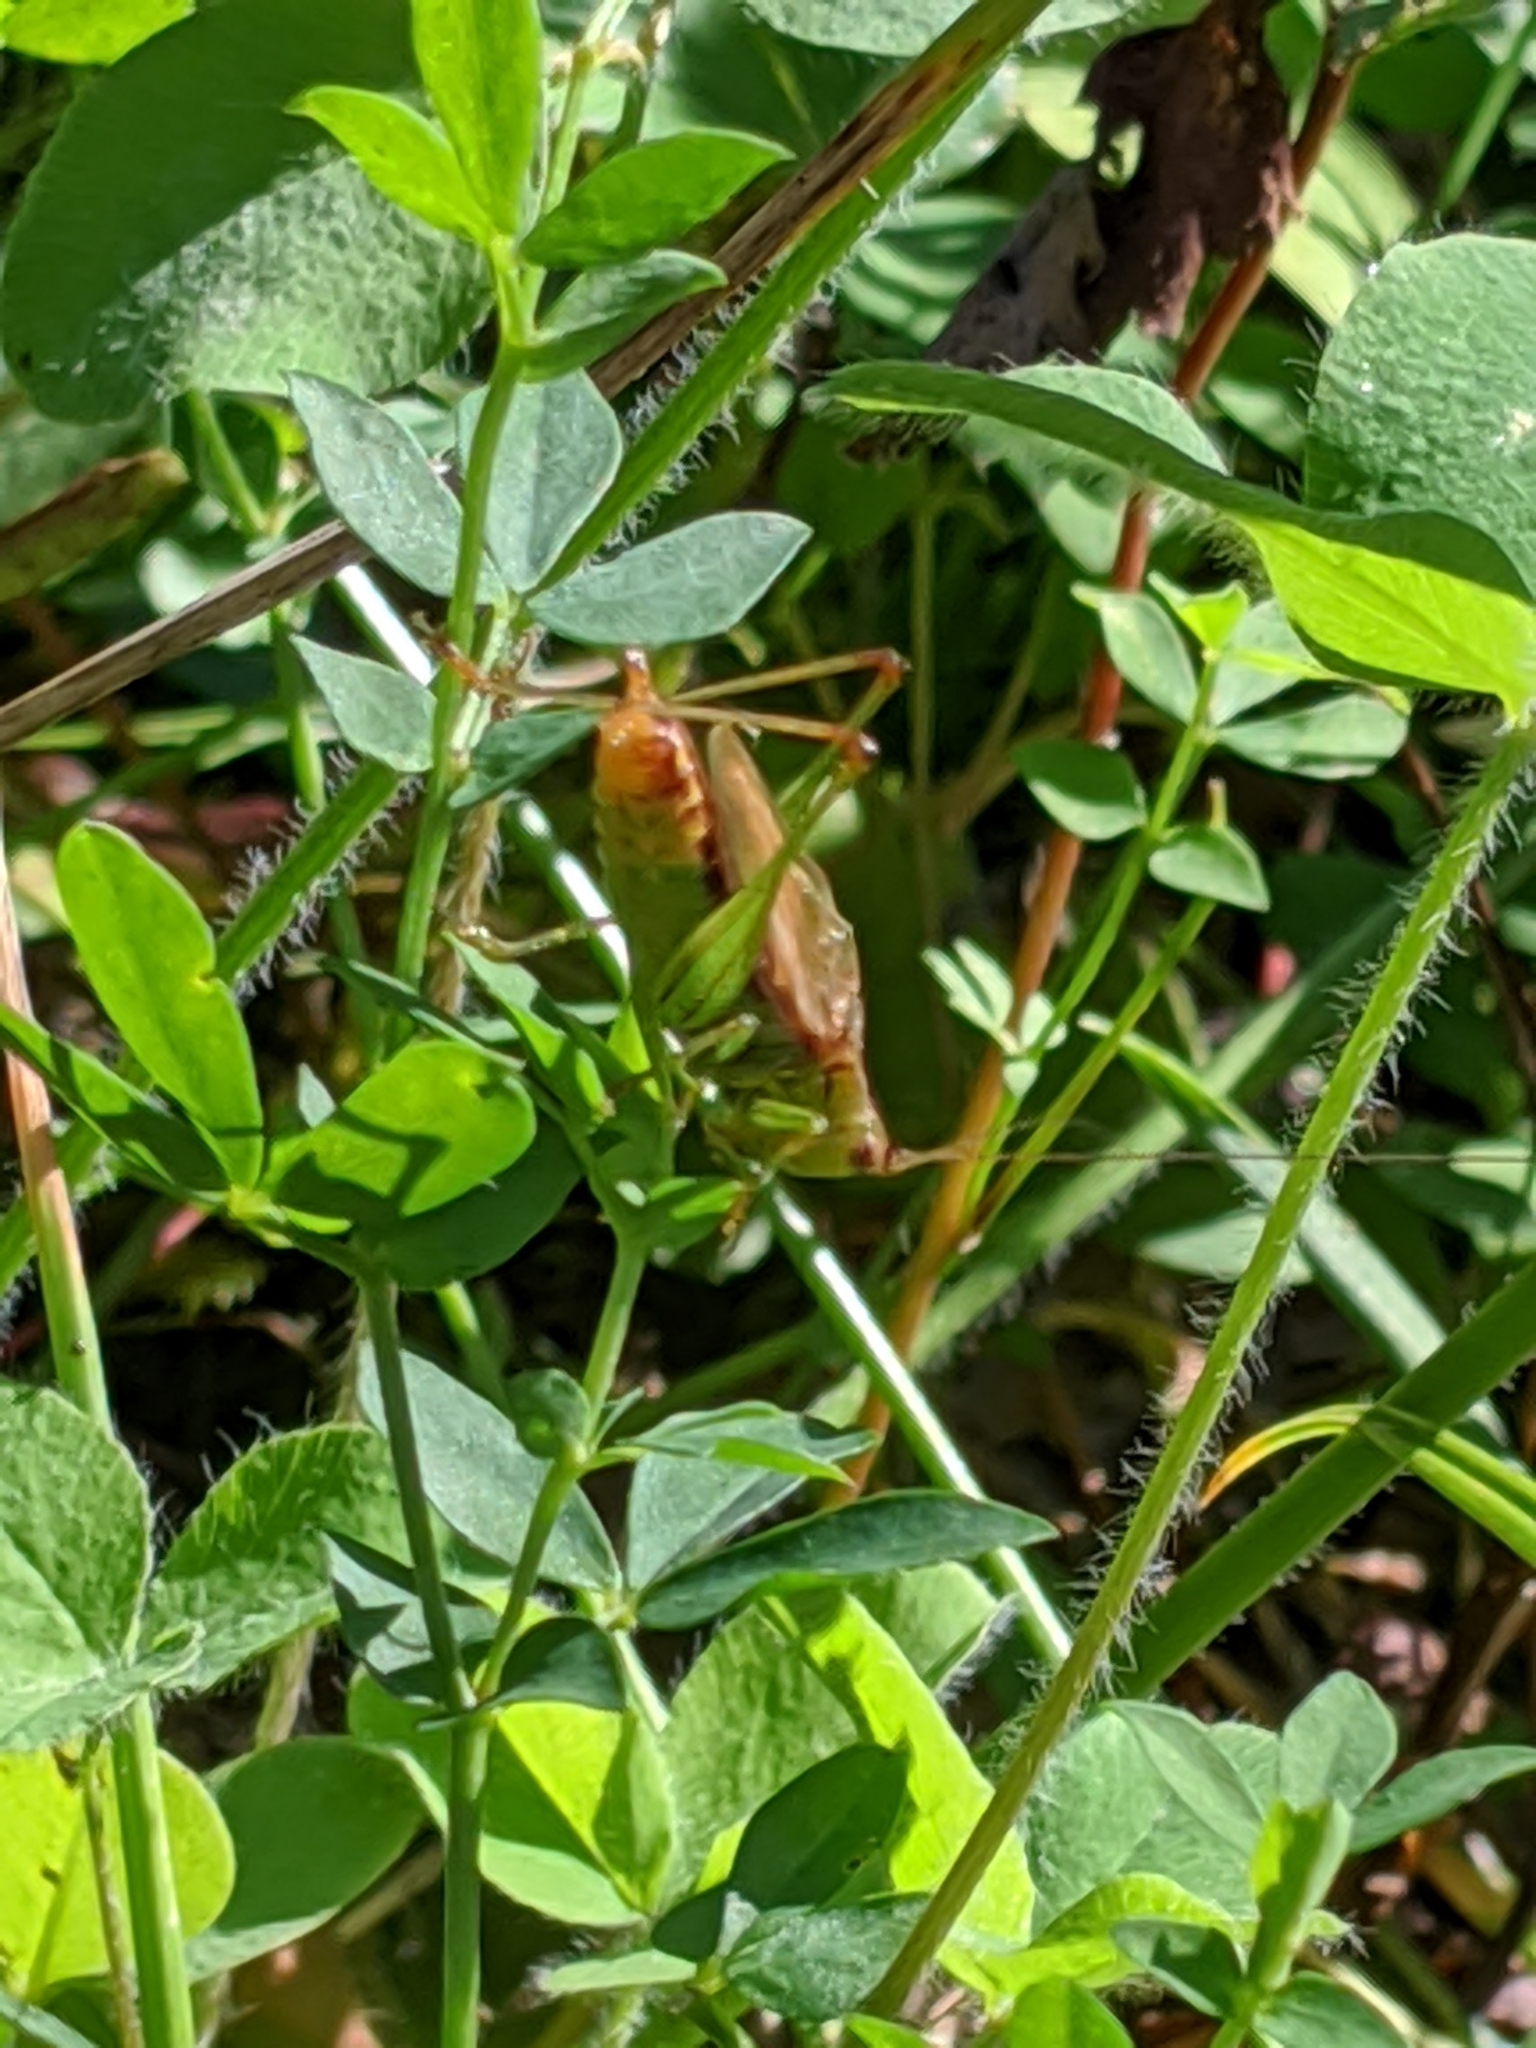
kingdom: Animalia
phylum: Arthropoda
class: Insecta
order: Orthoptera
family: Tettigoniidae
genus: Conocephalus
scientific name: Conocephalus brevipennis
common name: Short-winged meadow katydid
